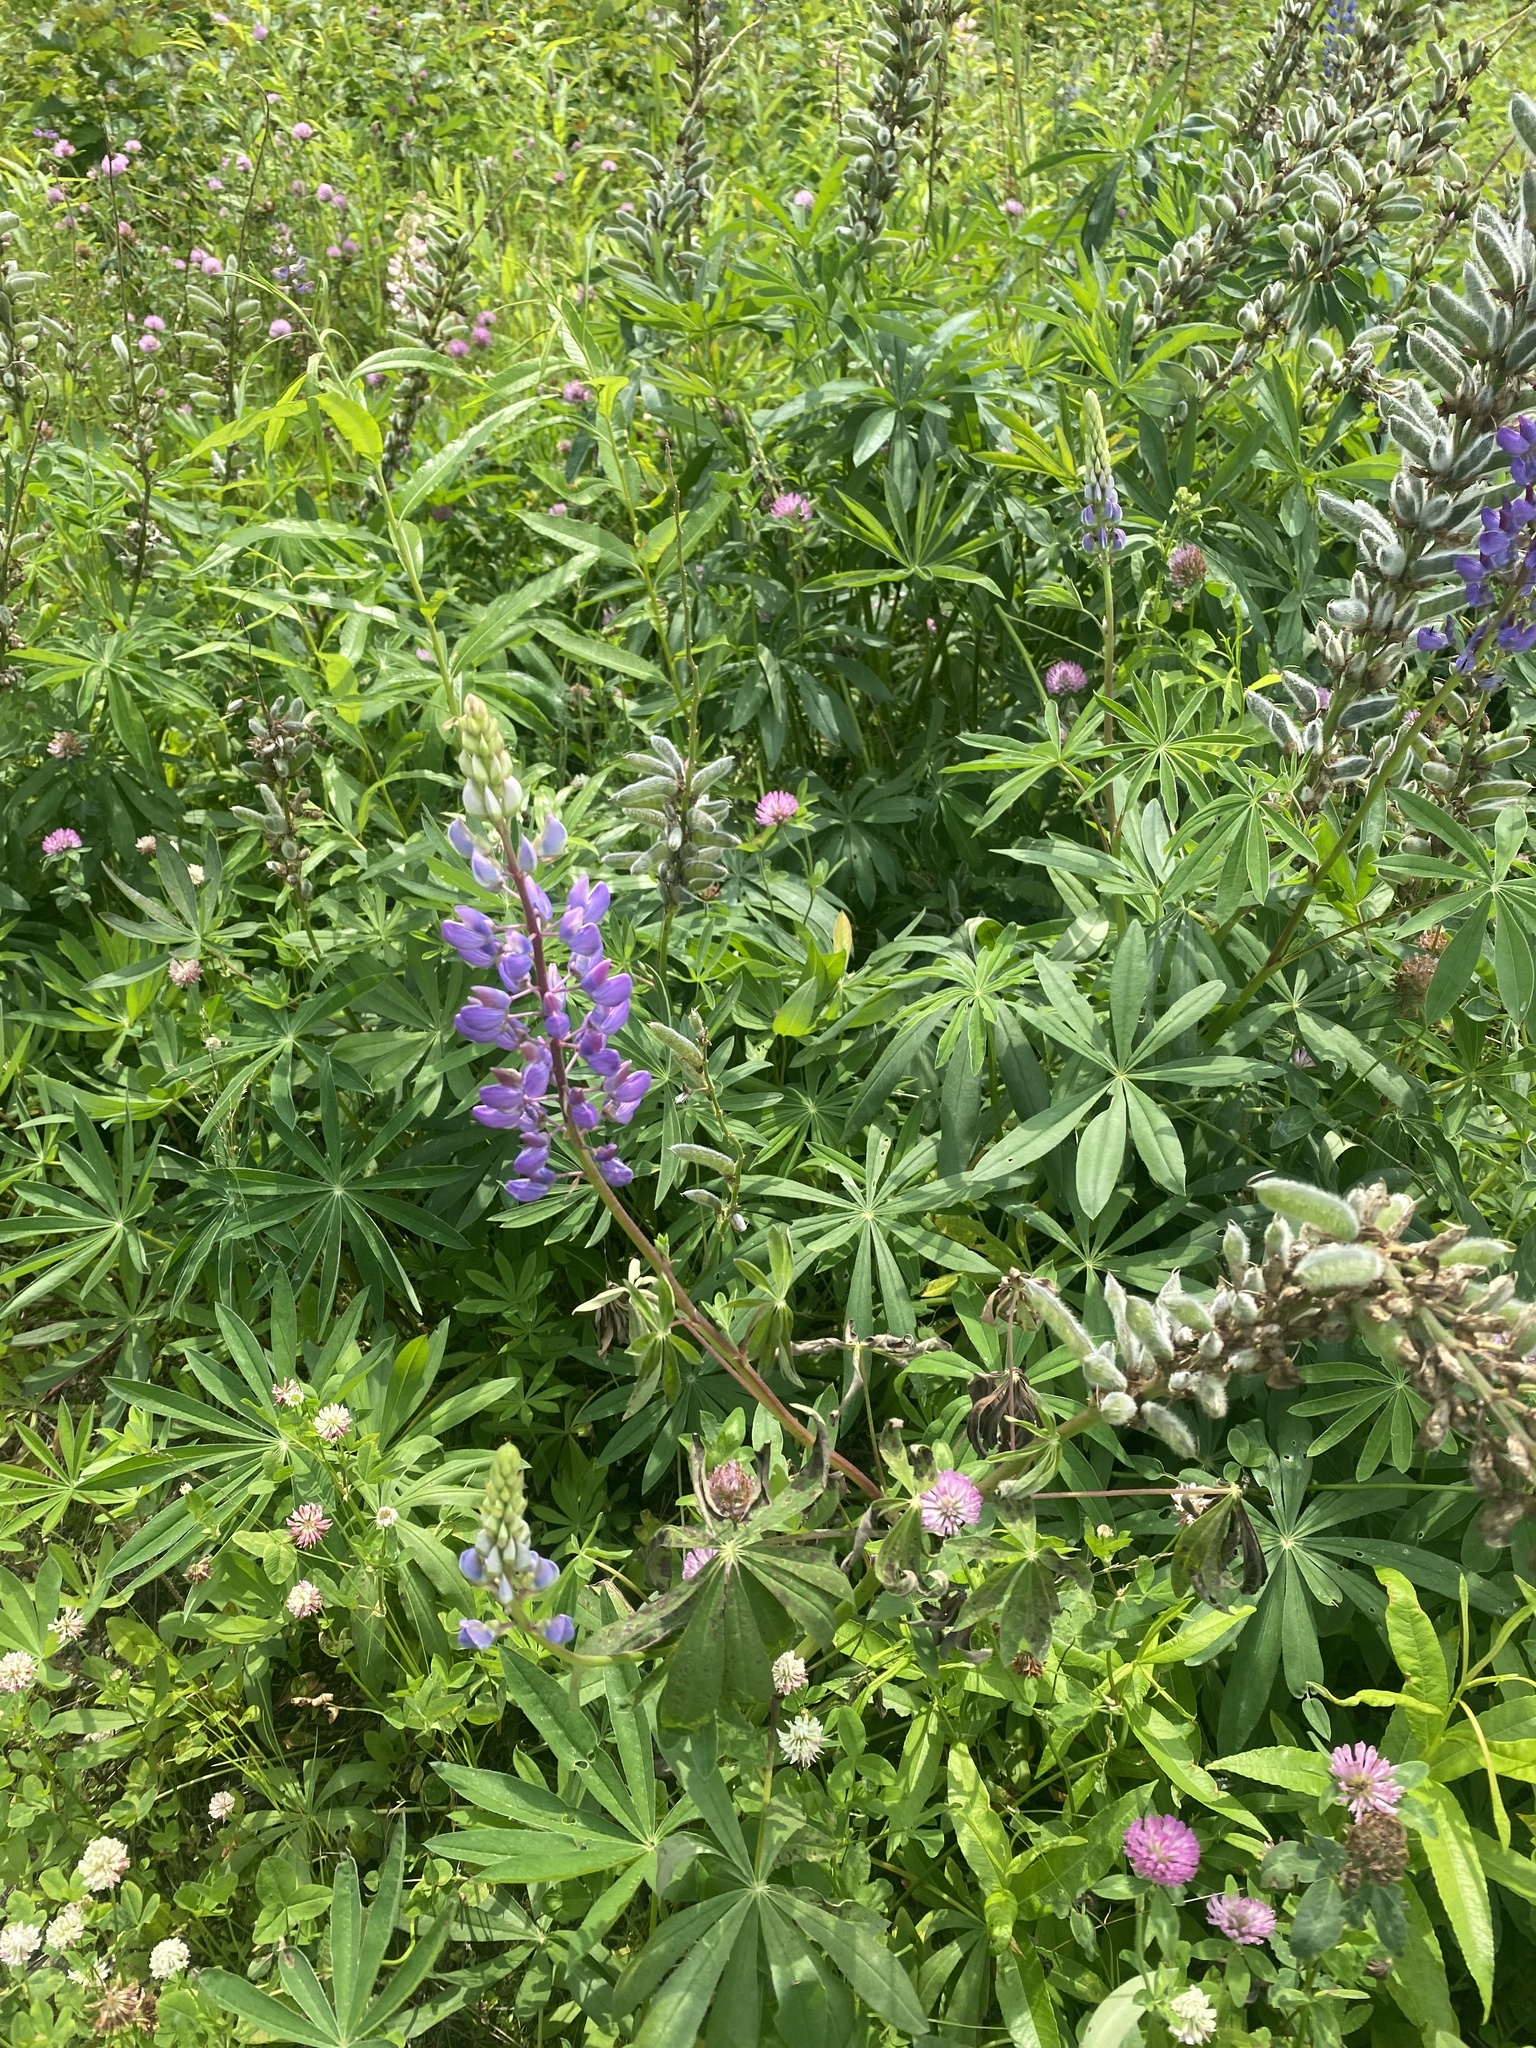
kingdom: Plantae
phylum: Tracheophyta
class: Magnoliopsida
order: Fabales
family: Fabaceae
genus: Lupinus
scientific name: Lupinus polyphyllus
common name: Garden lupin
